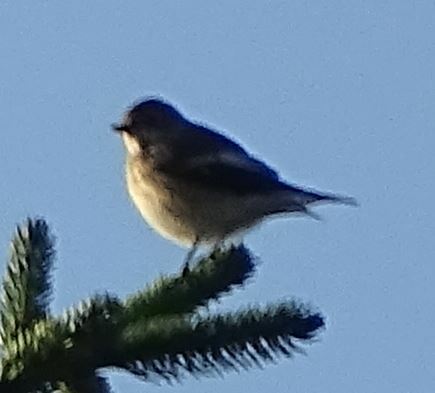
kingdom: Animalia
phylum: Chordata
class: Aves
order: Passeriformes
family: Muscicapidae
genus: Ficedula
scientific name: Ficedula hypoleuca
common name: European pied flycatcher
